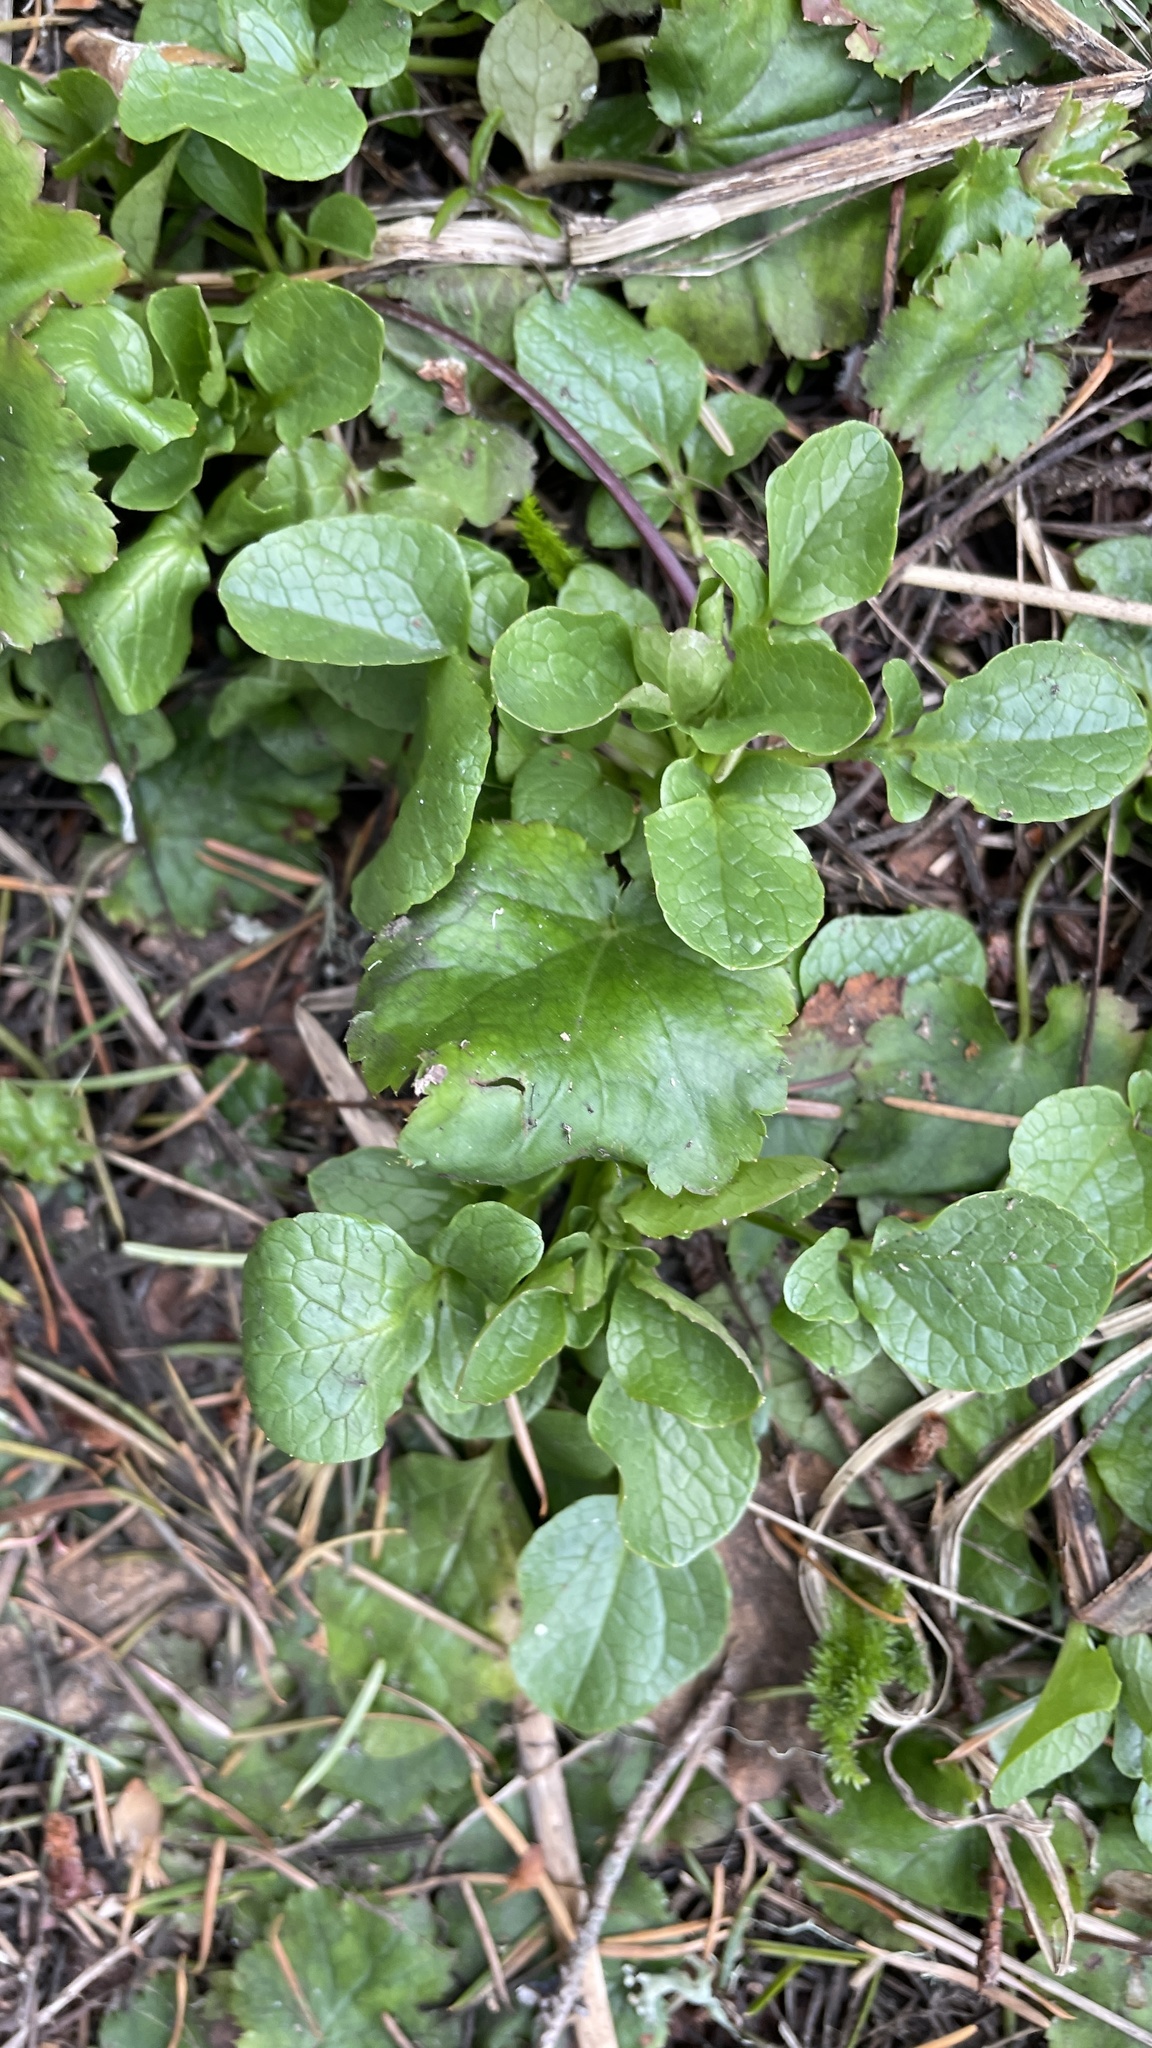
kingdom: Plantae
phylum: Tracheophyta
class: Magnoliopsida
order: Dipsacales
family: Caprifoliaceae
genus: Valeriana
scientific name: Valeriana sitchensis
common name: Pacific valerian
